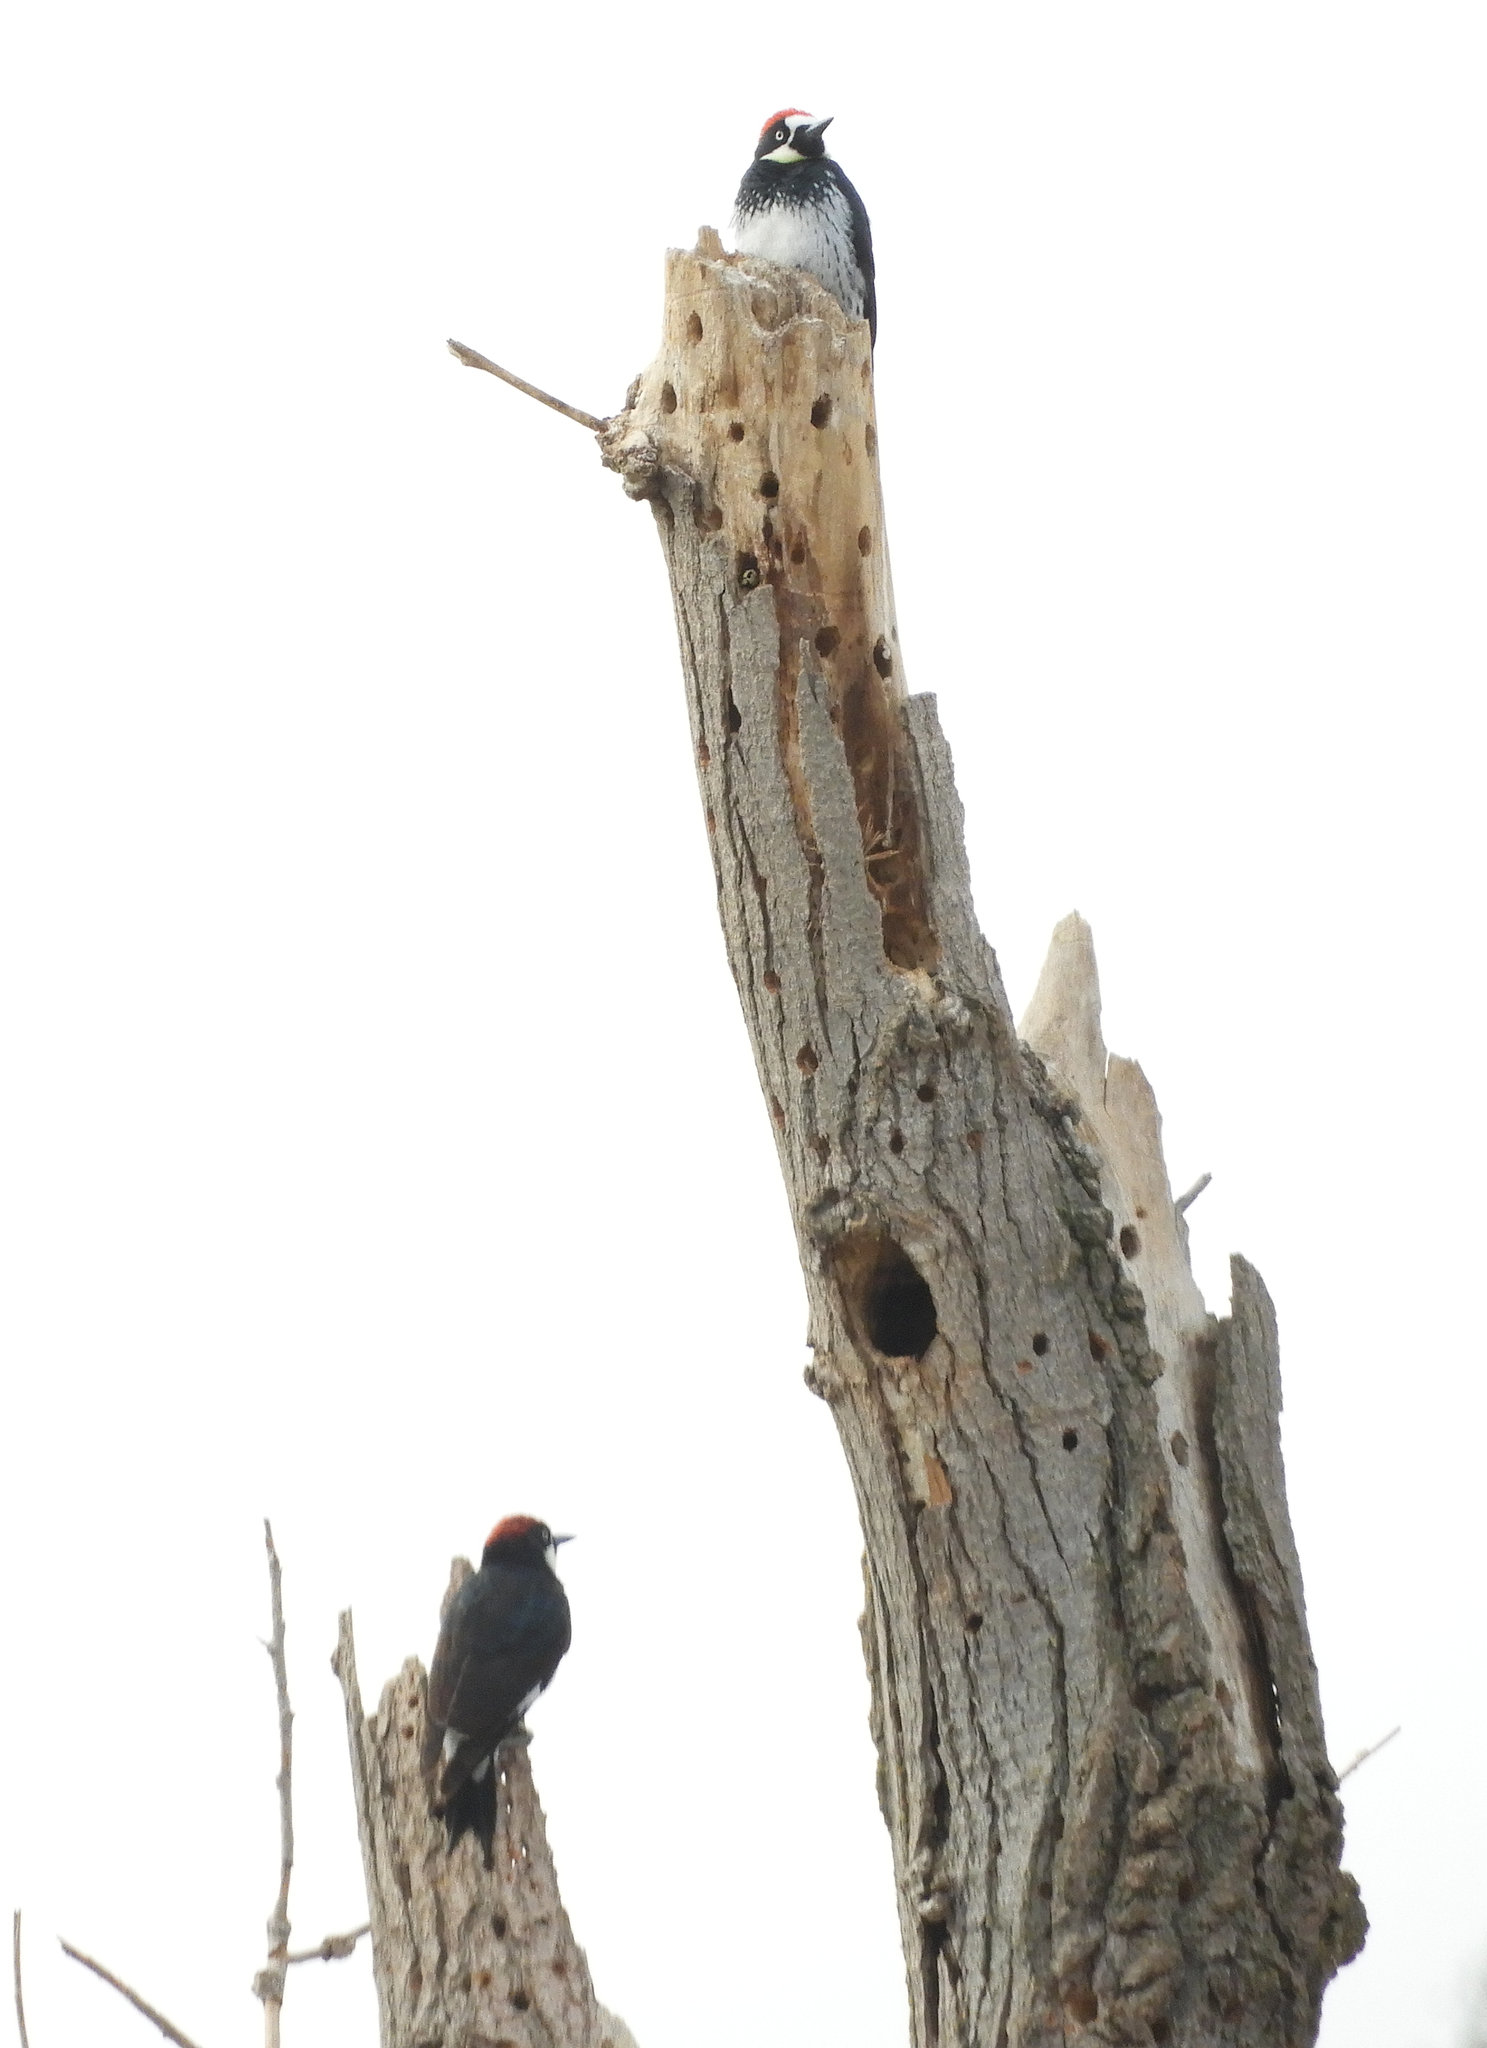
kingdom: Animalia
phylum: Chordata
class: Aves
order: Piciformes
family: Picidae
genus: Melanerpes
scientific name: Melanerpes formicivorus
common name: Acorn woodpecker
